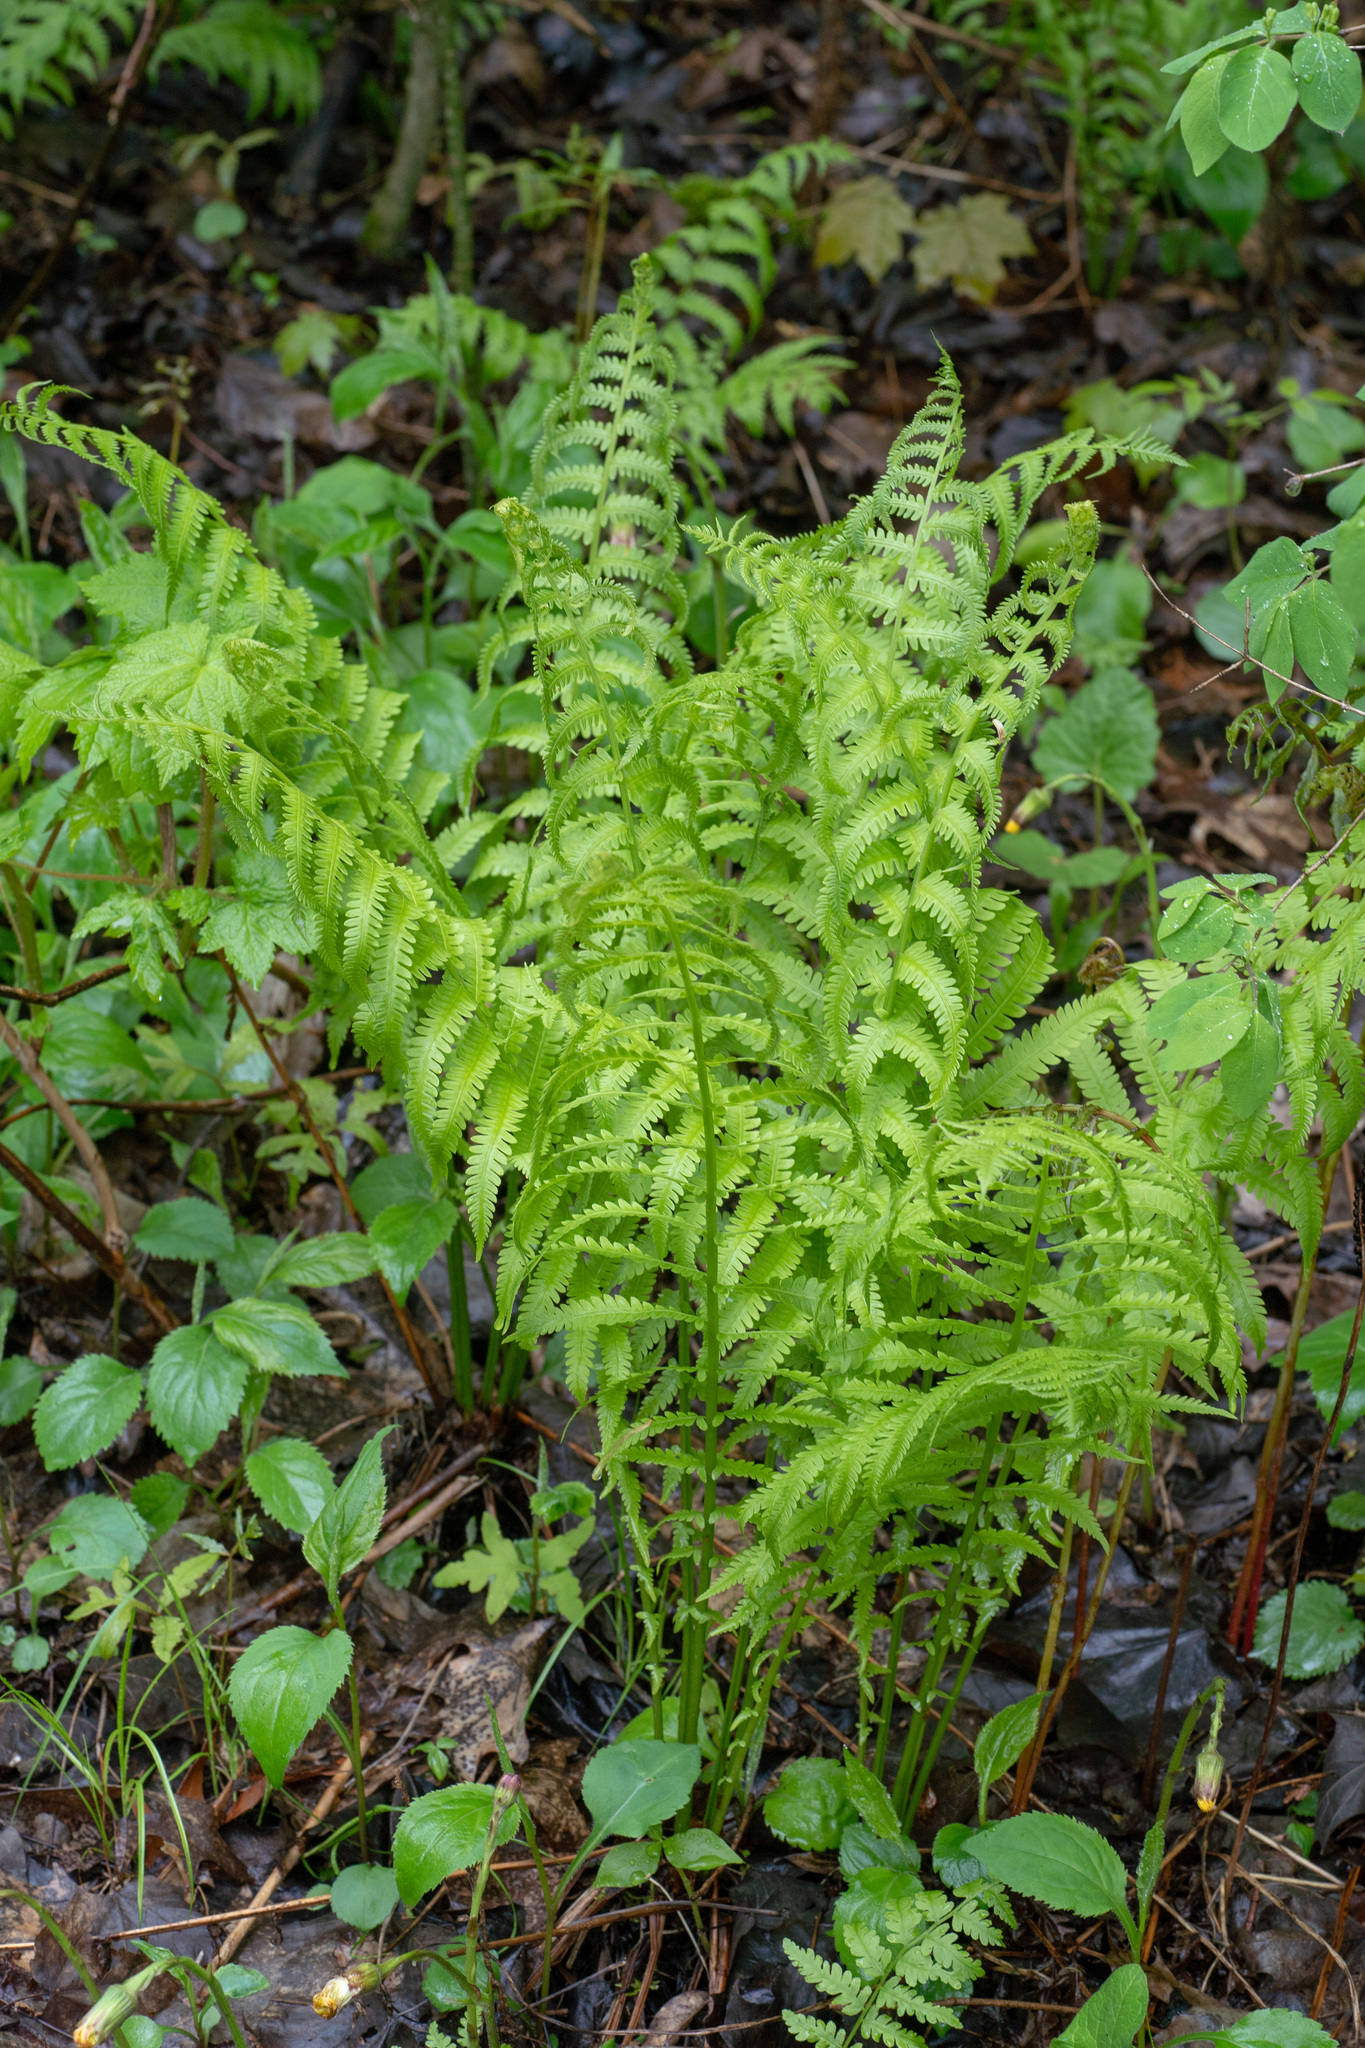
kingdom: Plantae
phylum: Tracheophyta
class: Polypodiopsida
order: Polypodiales
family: Onocleaceae
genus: Matteuccia
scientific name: Matteuccia struthiopteris
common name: Ostrich fern
